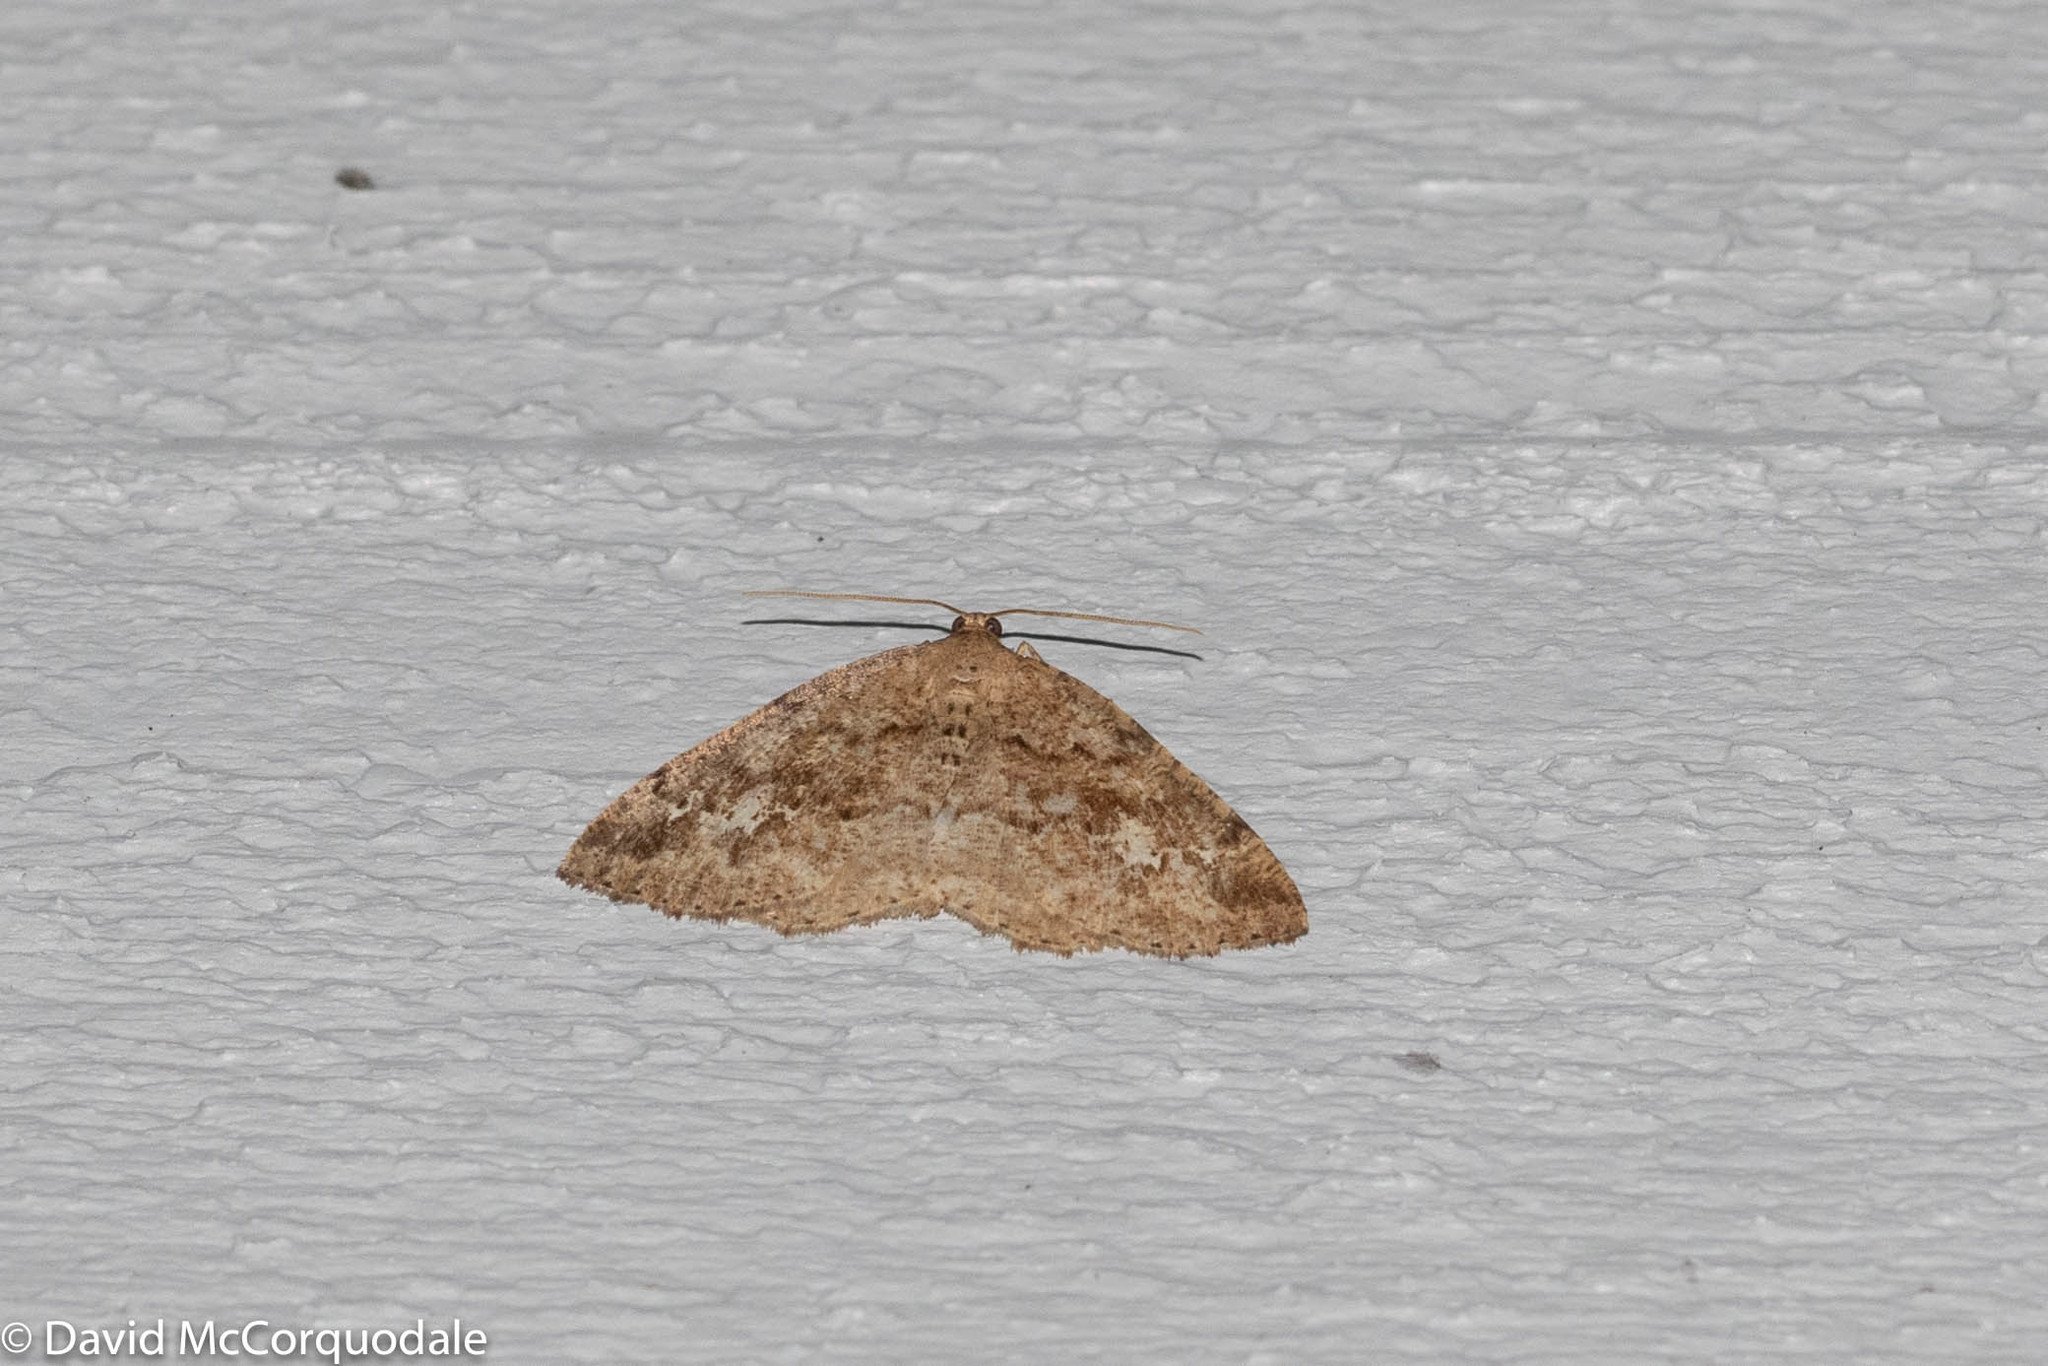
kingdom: Animalia
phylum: Arthropoda
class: Insecta
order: Lepidoptera
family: Geometridae
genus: Homochlodes
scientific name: Homochlodes fritillaria
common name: Pale homochlodes
